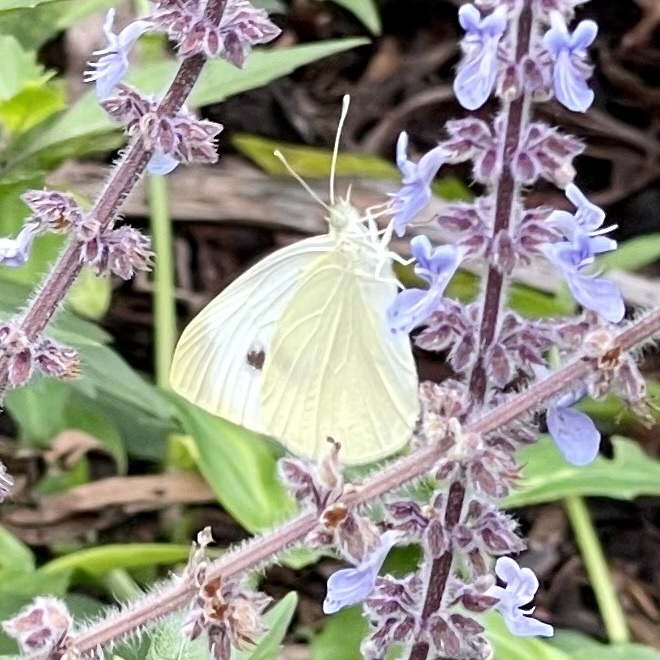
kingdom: Animalia
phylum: Arthropoda
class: Insecta
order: Lepidoptera
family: Pieridae
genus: Pieris
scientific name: Pieris rapae
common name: Small white
